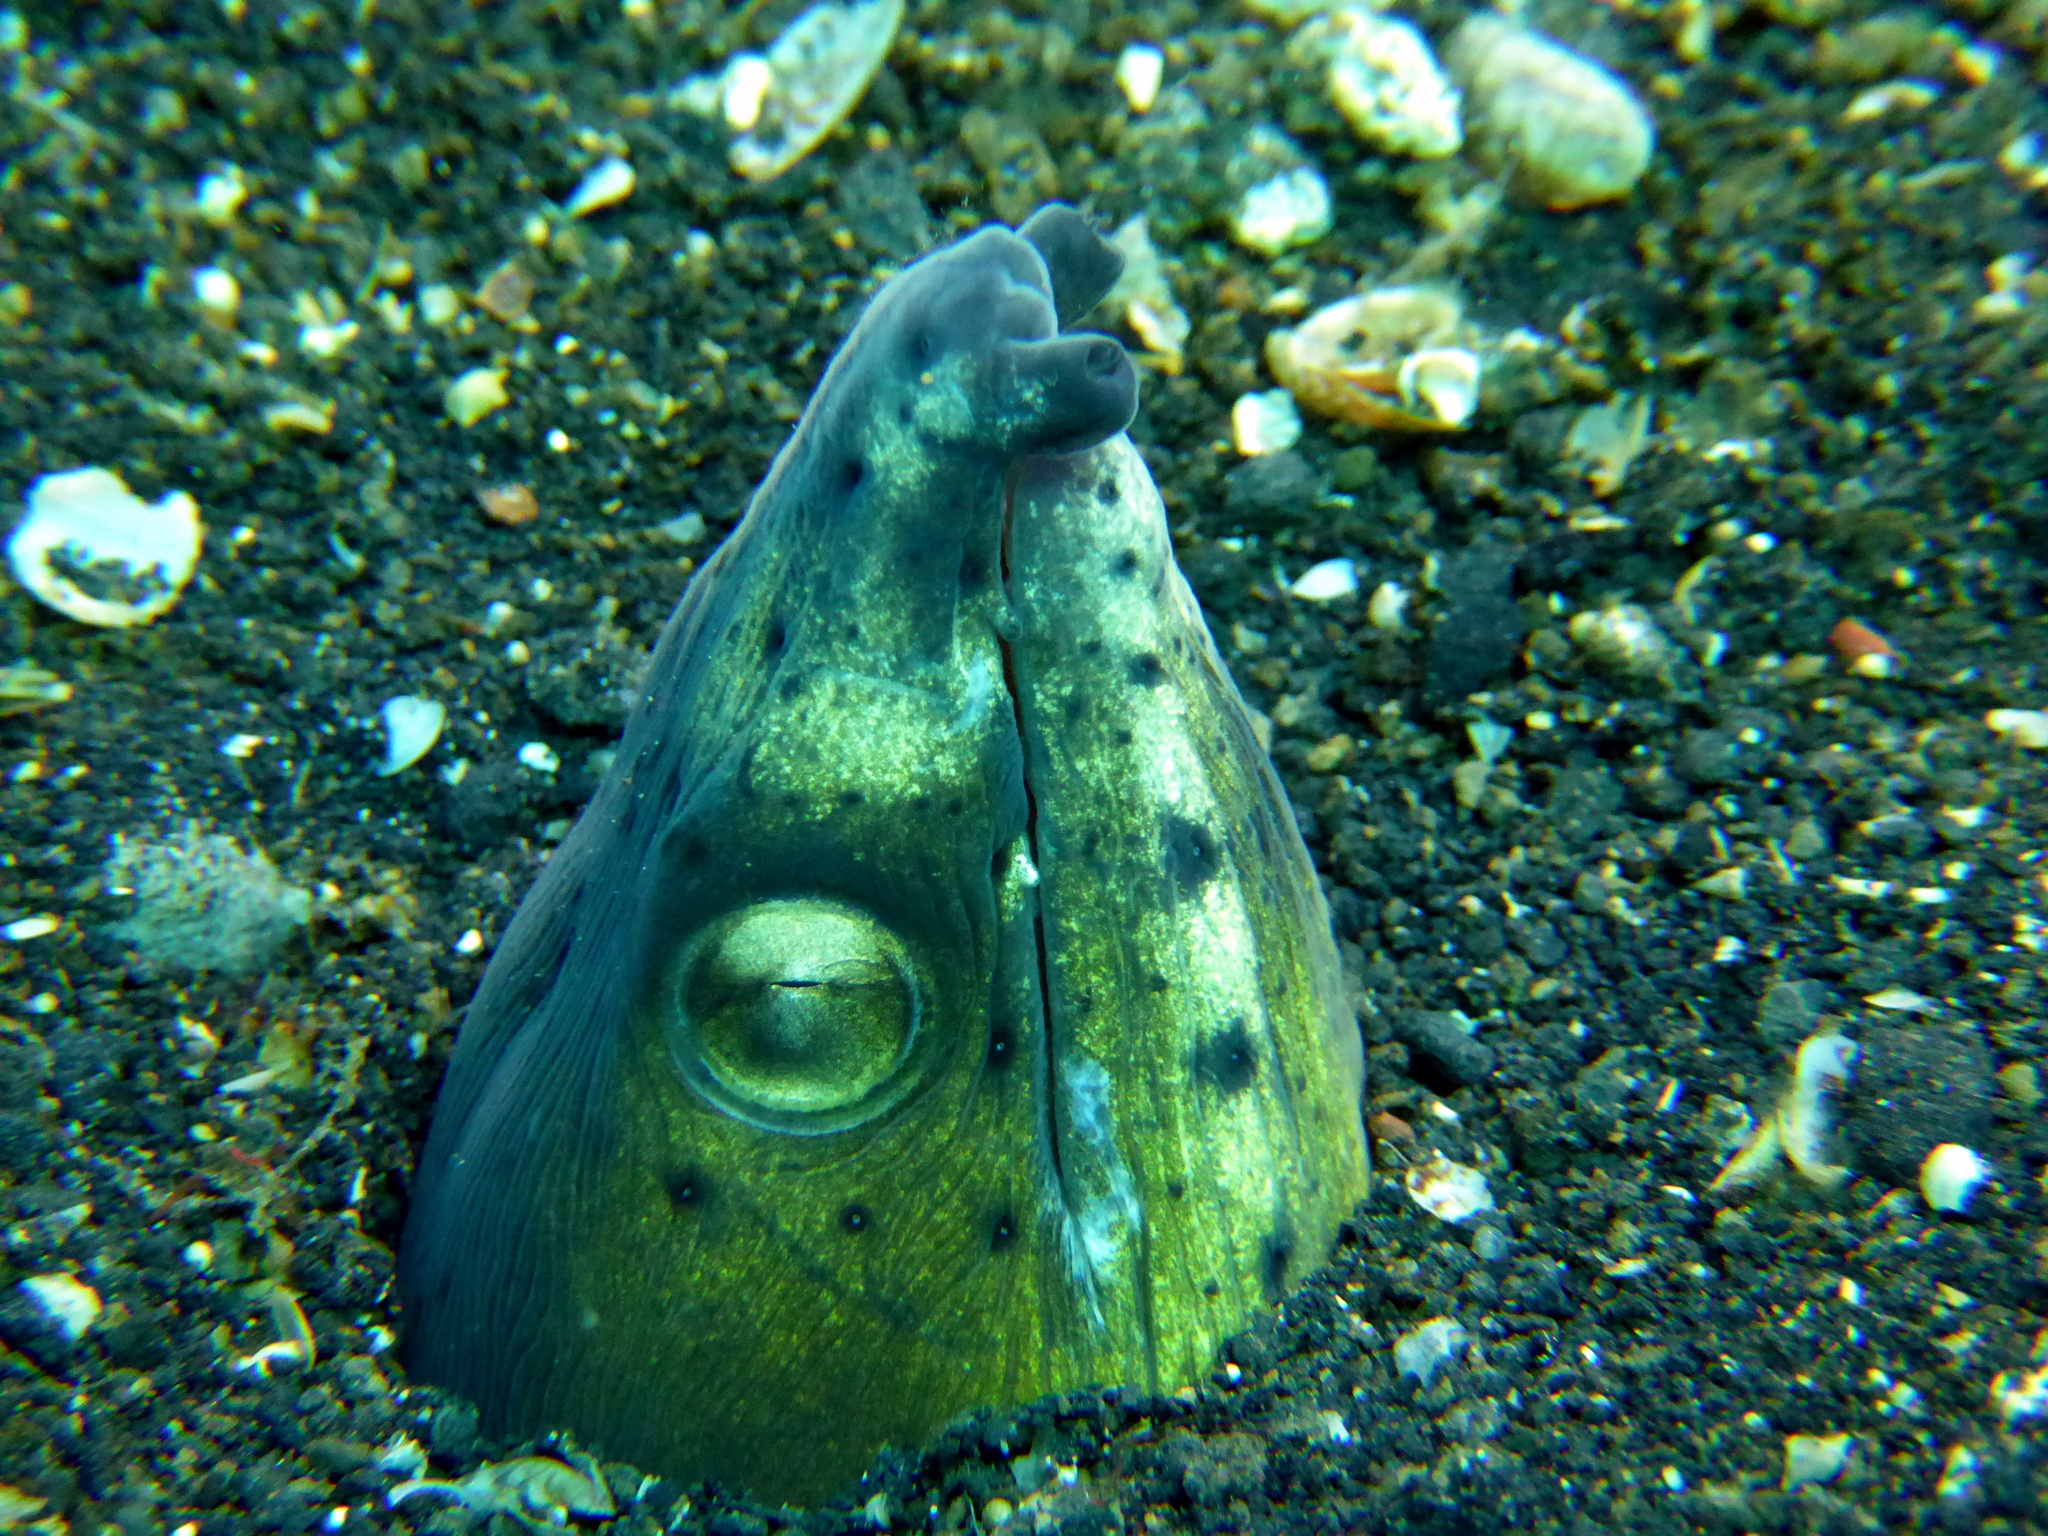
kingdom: Animalia
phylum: Chordata
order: Anguilliformes
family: Ophichthidae
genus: Ophichthus
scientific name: Ophichthus altipennis
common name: Highfin snake eel
